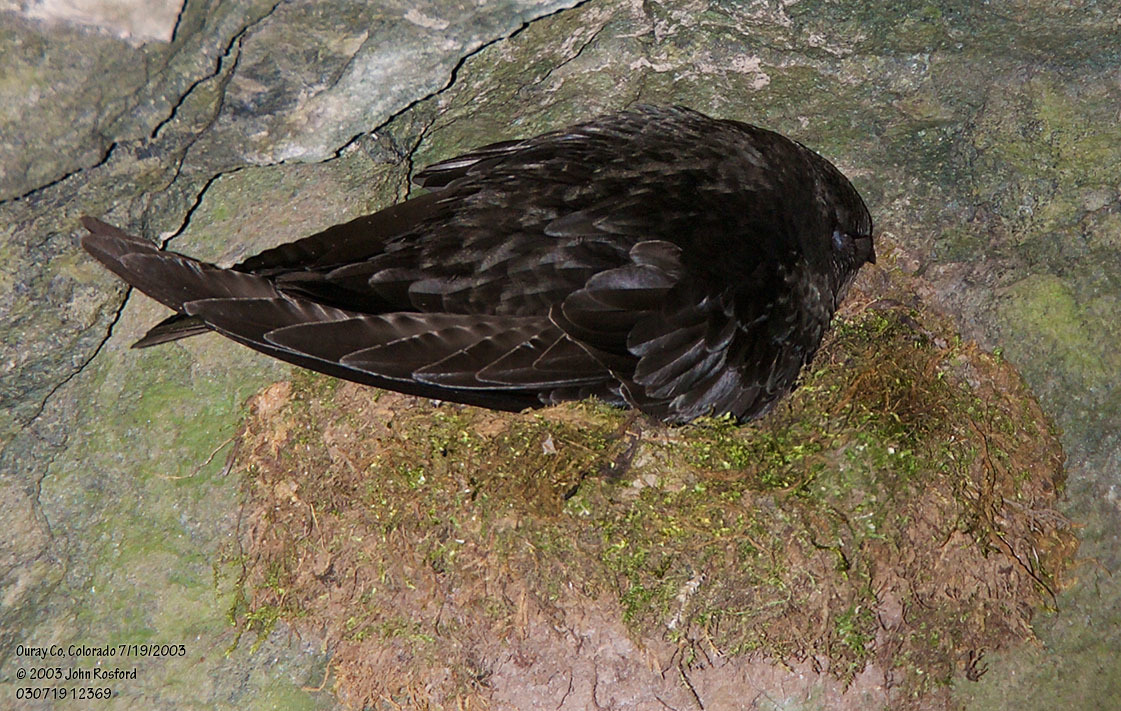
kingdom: Animalia
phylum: Chordata
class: Aves
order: Apodiformes
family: Apodidae
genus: Cypseloides
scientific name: Cypseloides niger
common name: Black swift
